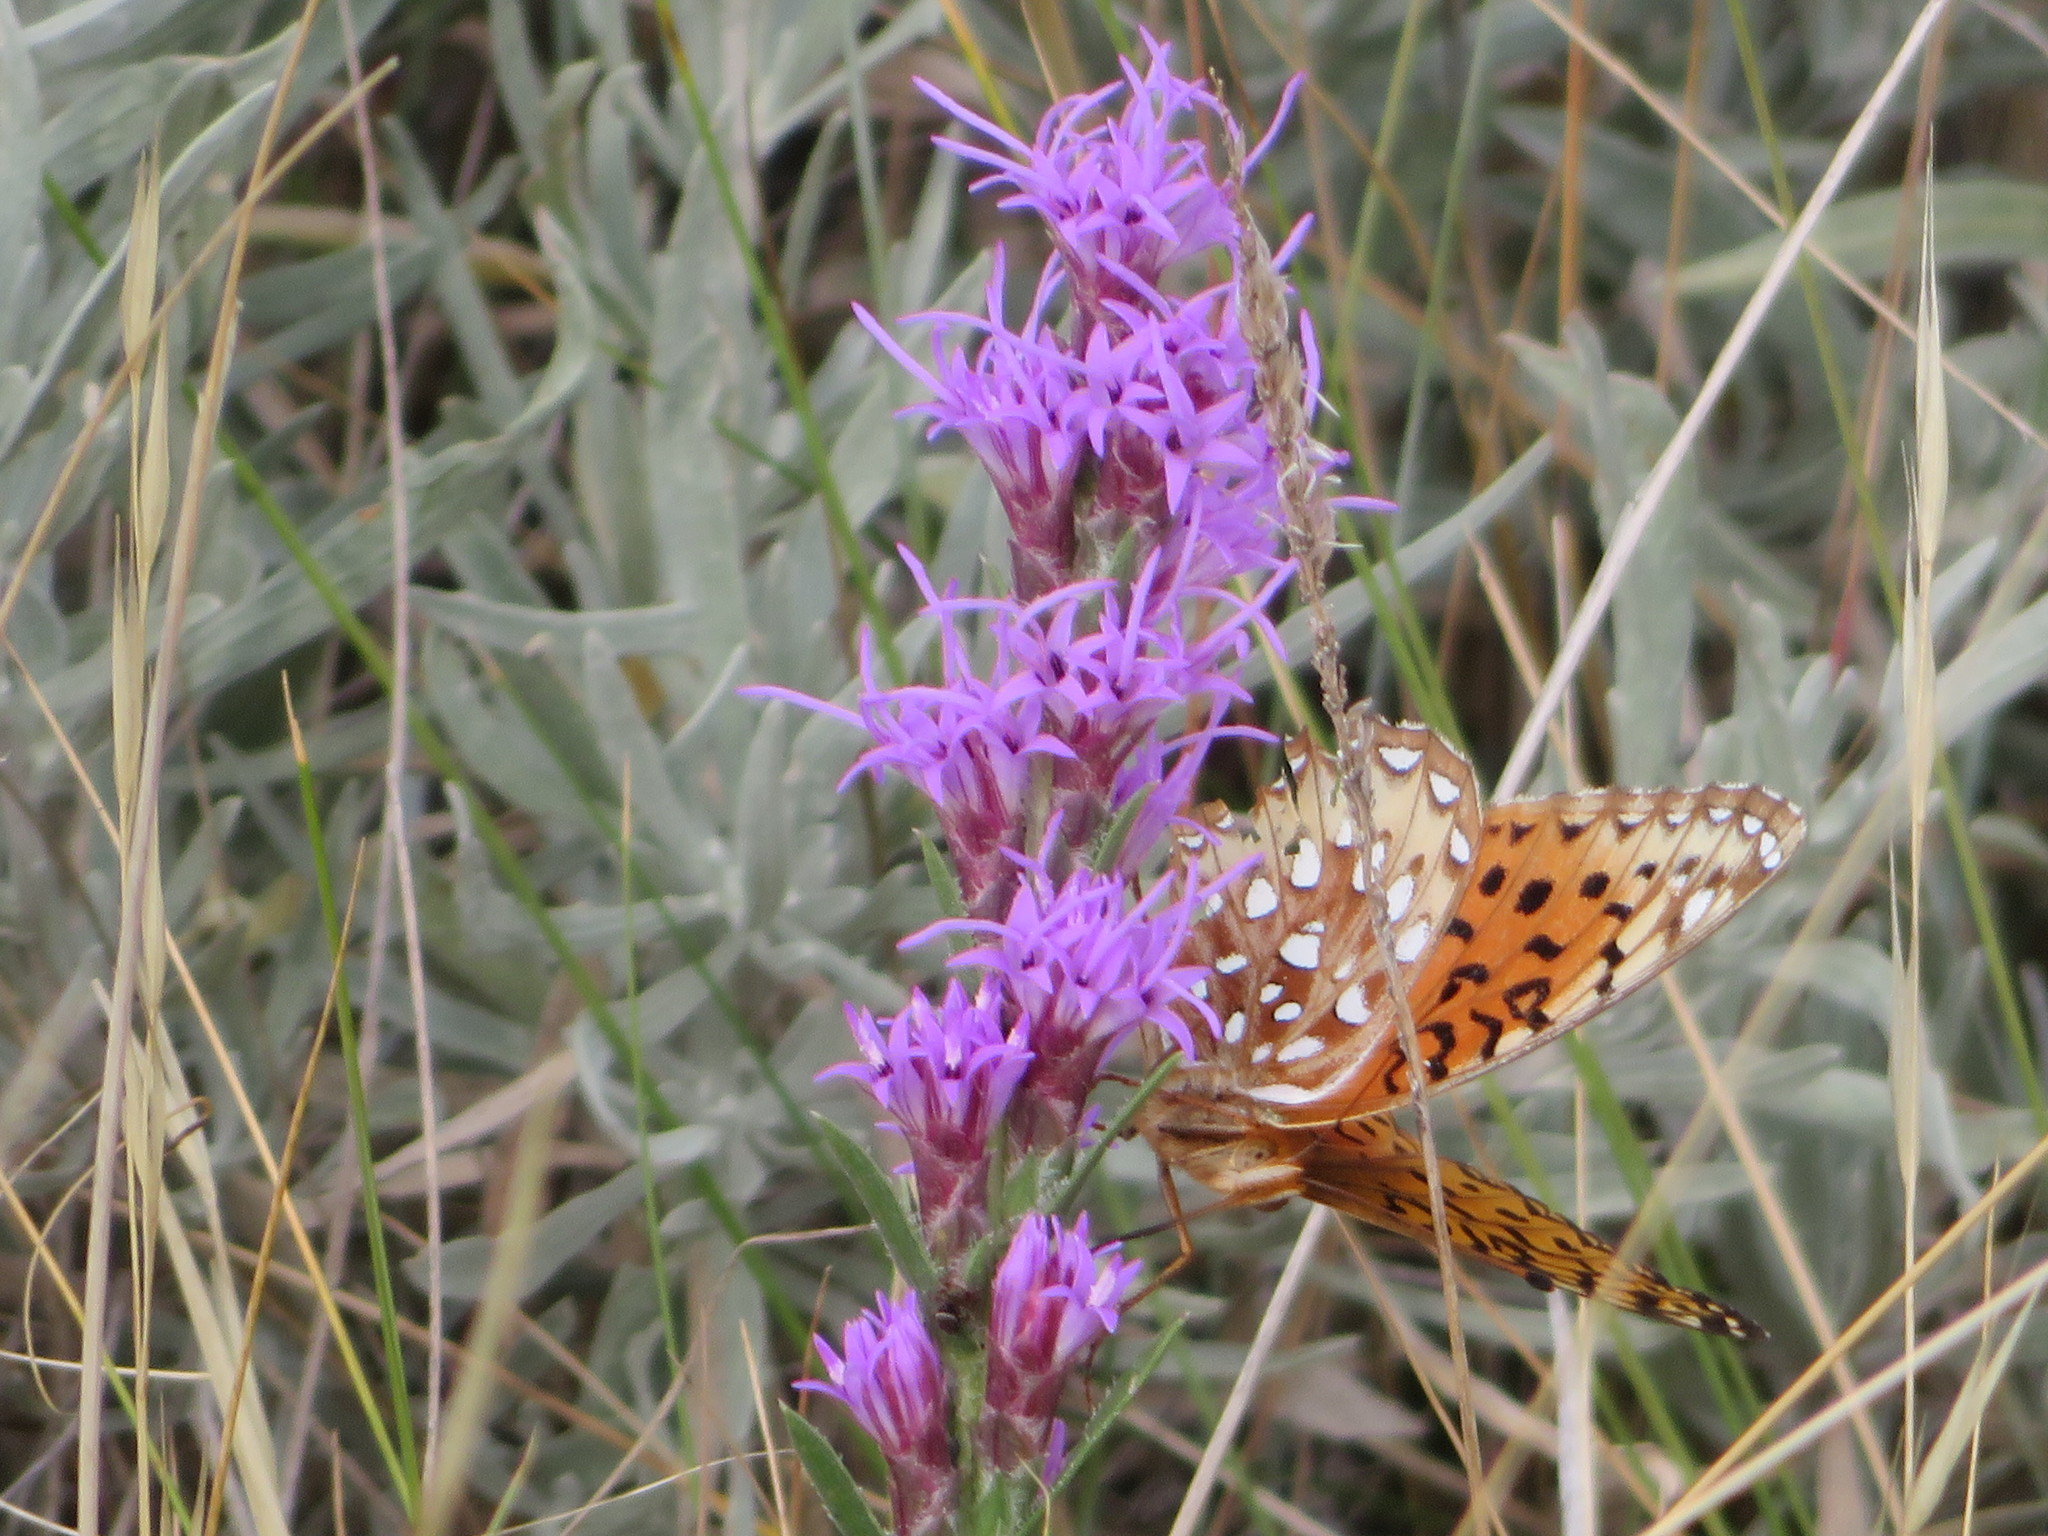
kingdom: Animalia
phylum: Arthropoda
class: Insecta
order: Lepidoptera
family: Nymphalidae
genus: Speyeria
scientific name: Speyeria aphrodite
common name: Aphrodite friitllary
